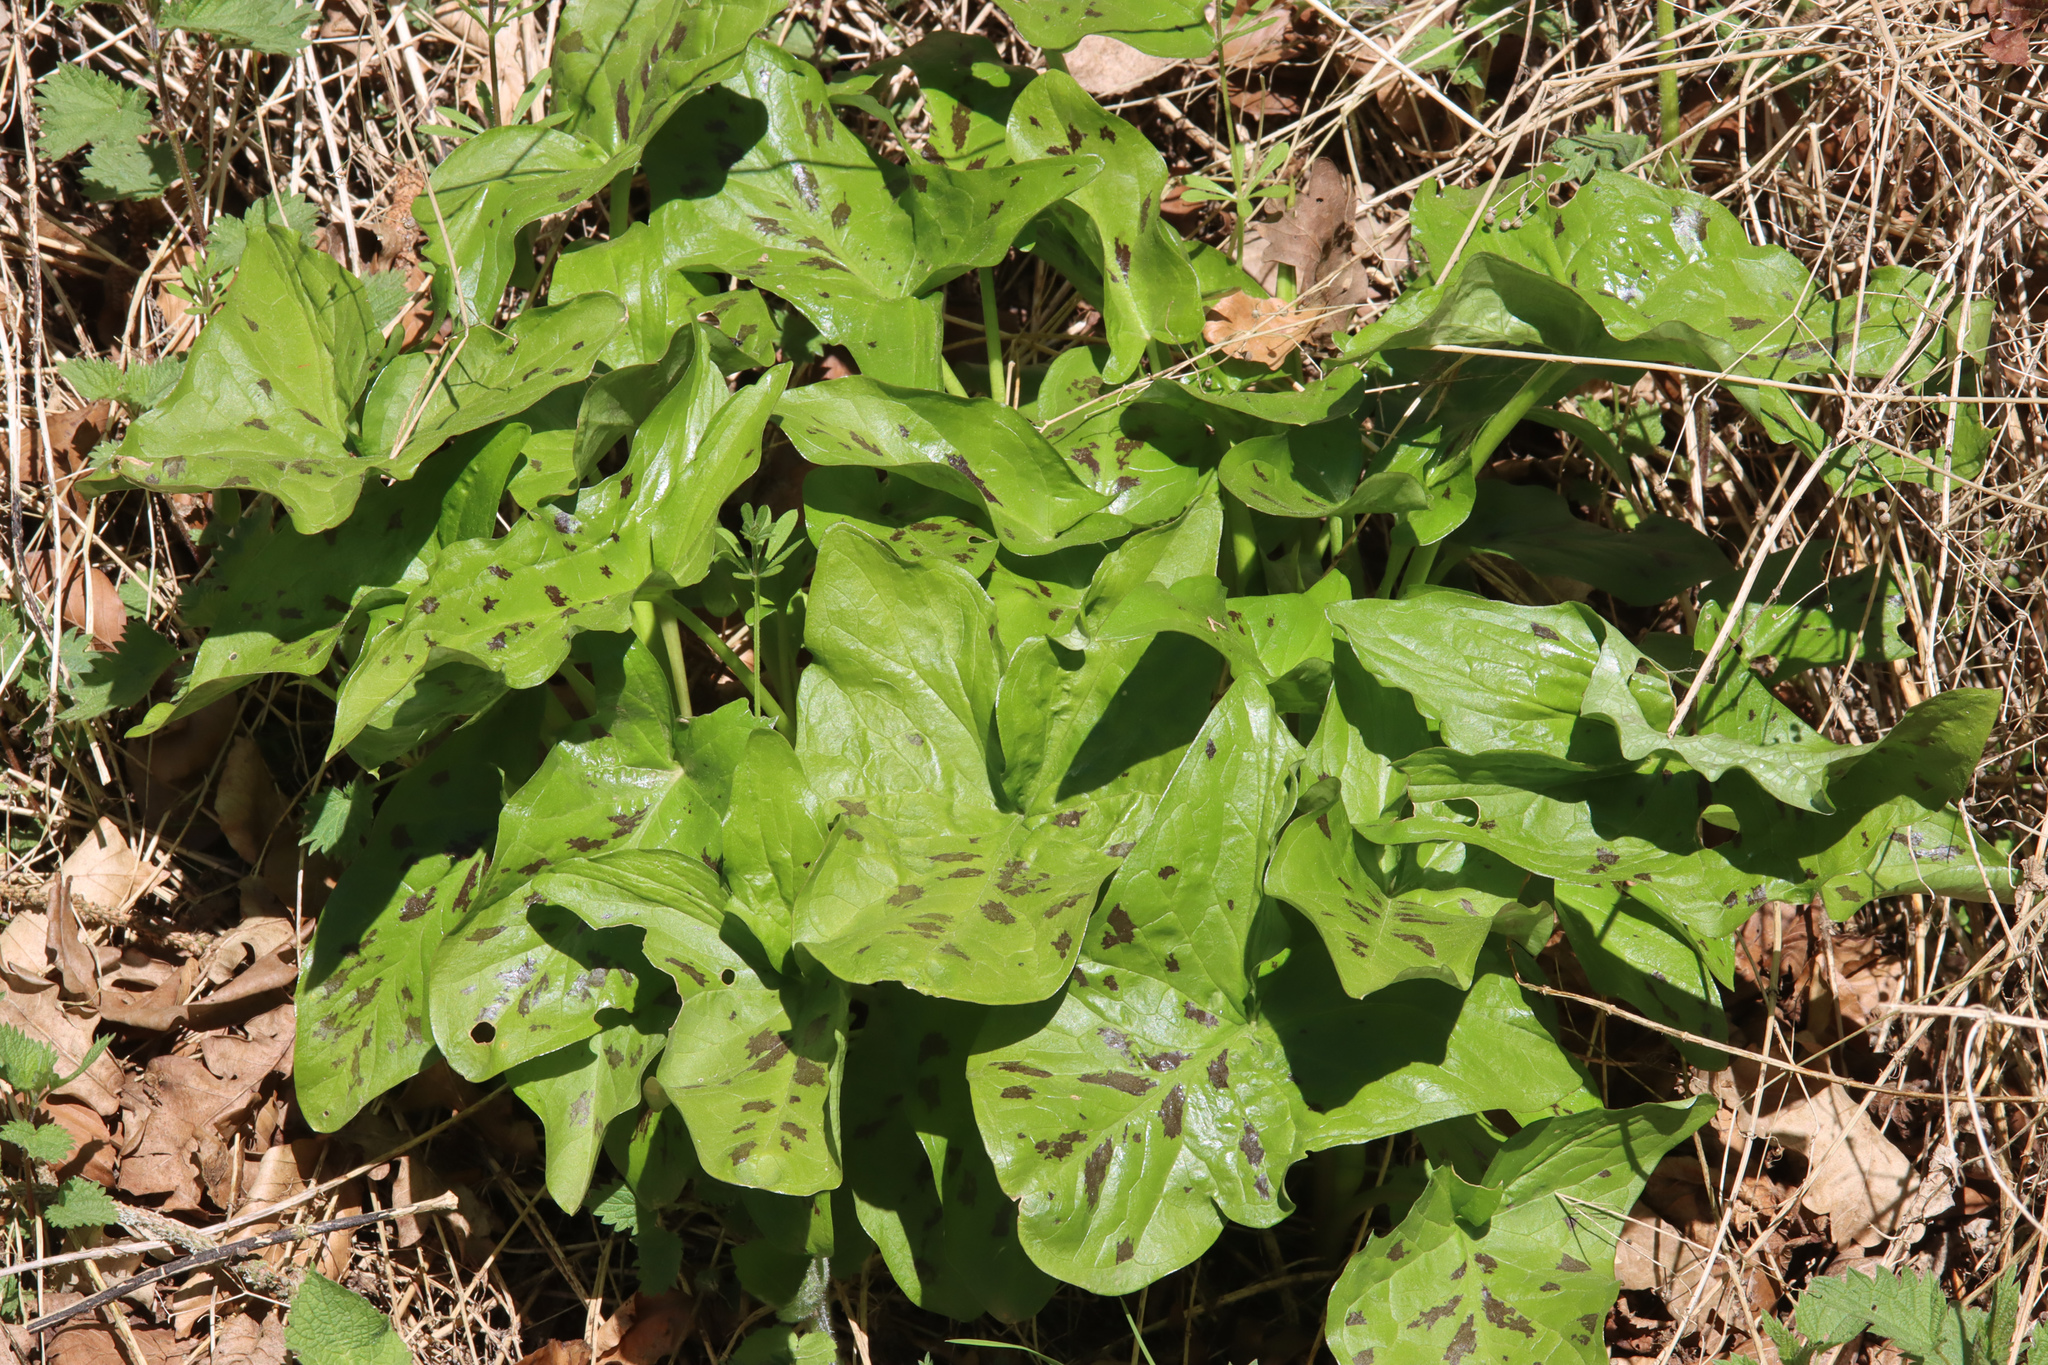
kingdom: Plantae
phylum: Tracheophyta
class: Liliopsida
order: Alismatales
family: Araceae
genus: Arum
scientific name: Arum maculatum
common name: Lords-and-ladies
